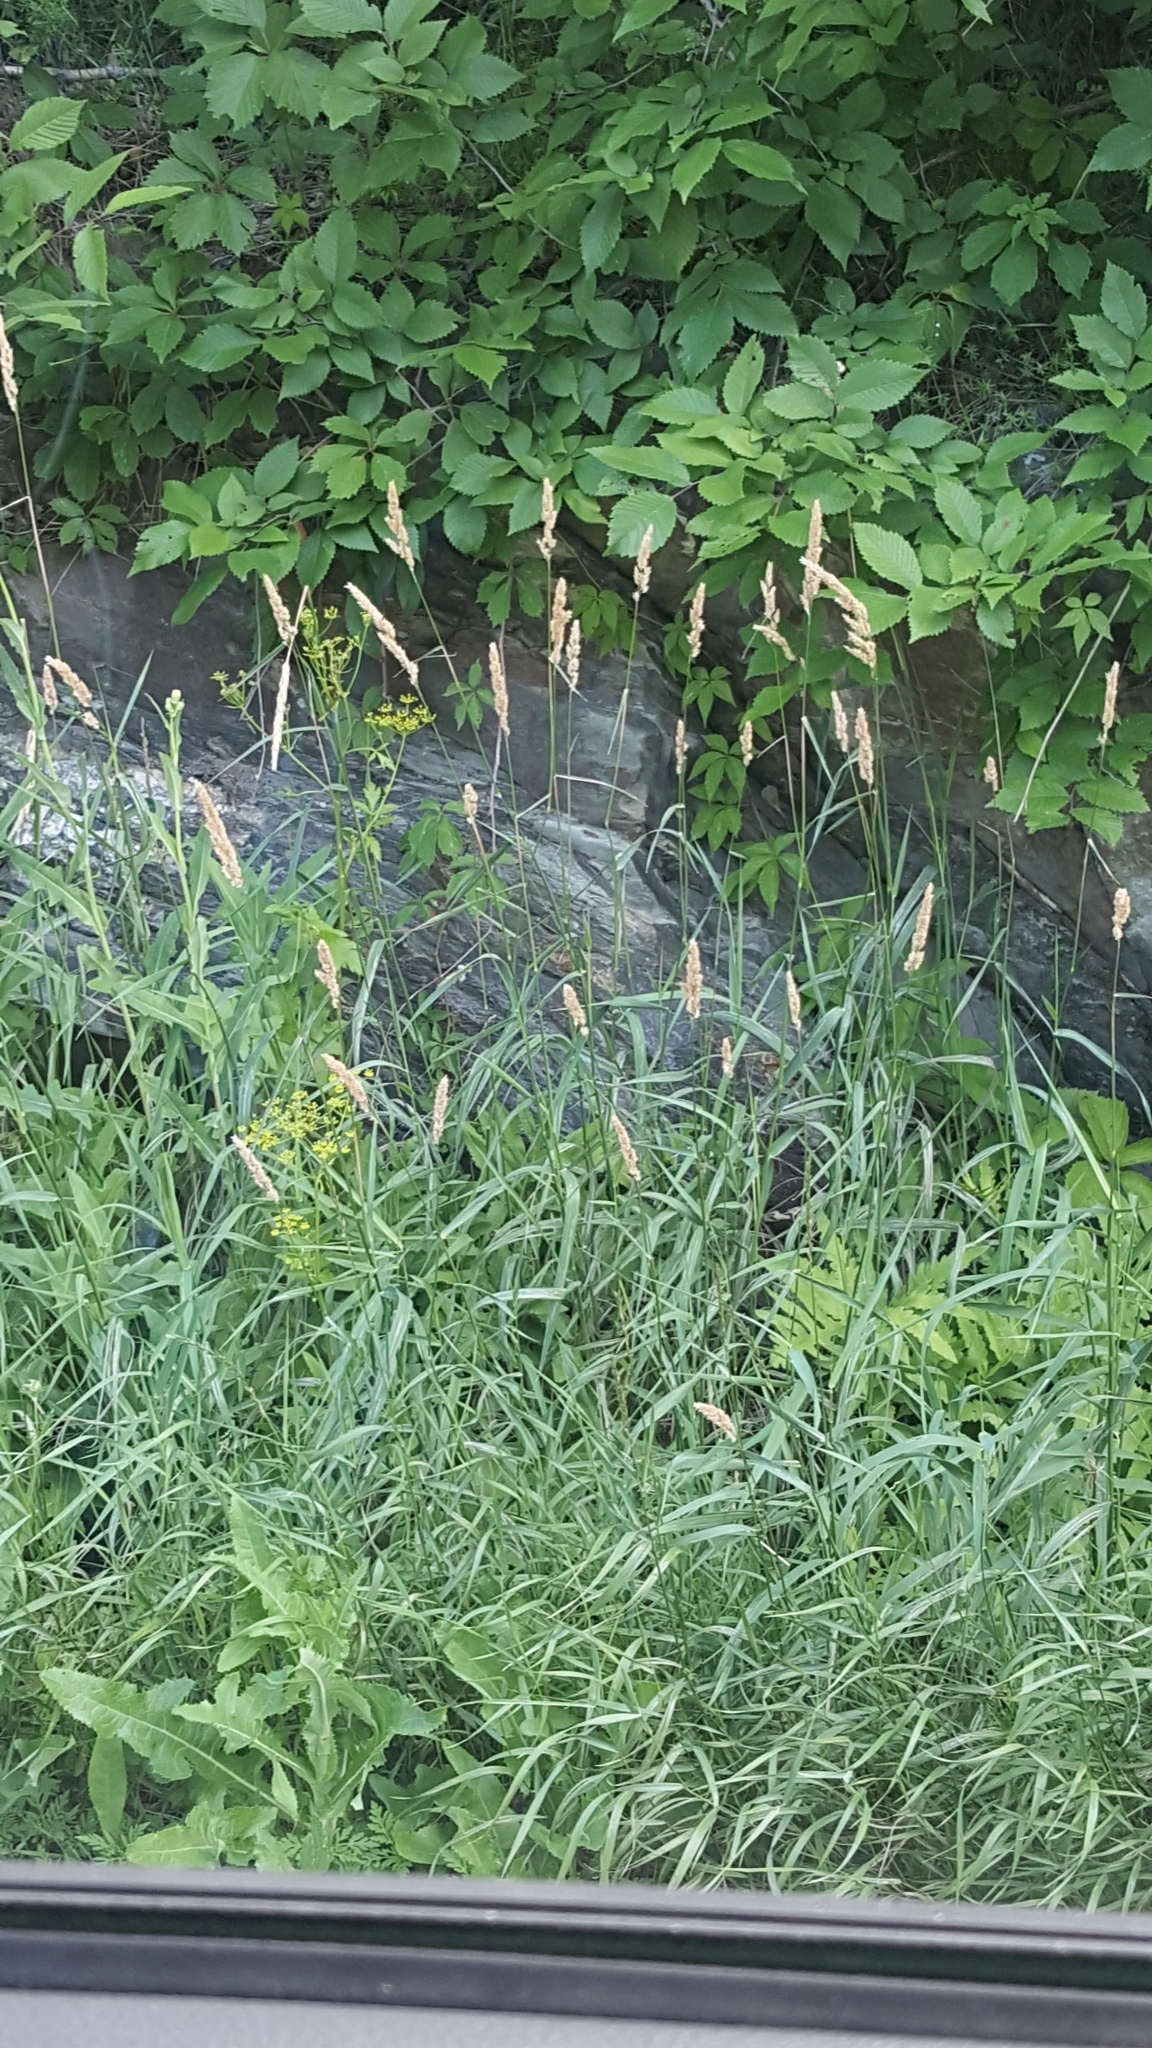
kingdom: Plantae
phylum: Tracheophyta
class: Liliopsida
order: Poales
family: Poaceae
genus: Phalaris
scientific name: Phalaris arundinacea
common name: Reed canary-grass
